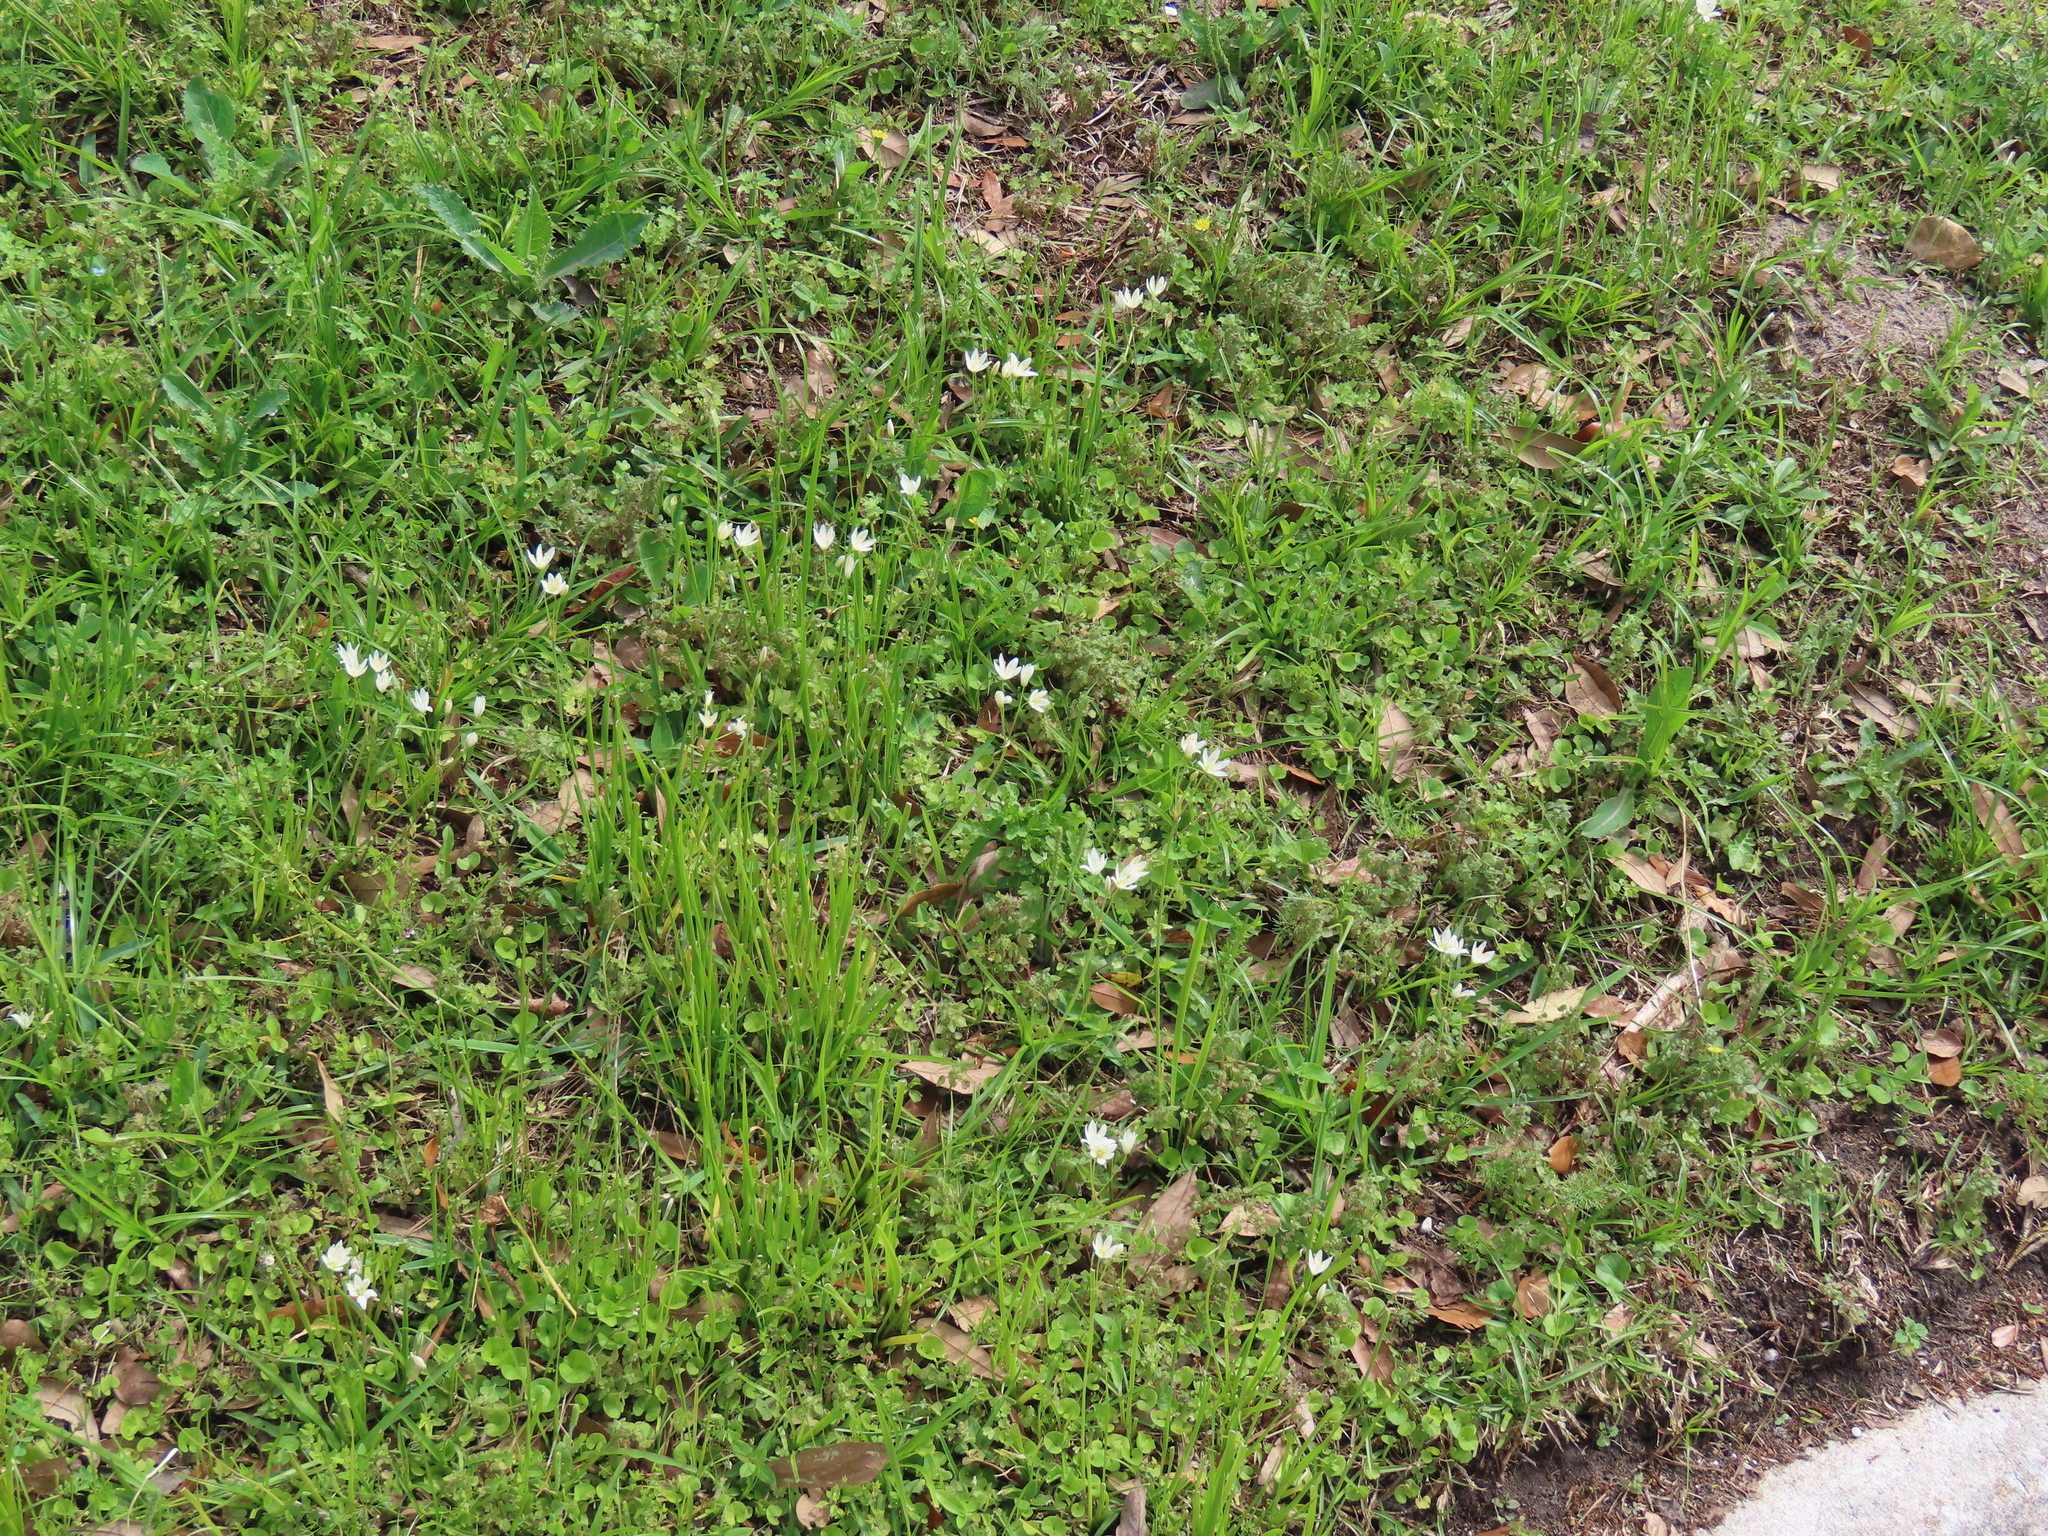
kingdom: Plantae
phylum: Tracheophyta
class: Liliopsida
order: Asparagales
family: Amaryllidaceae
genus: Nothoscordum
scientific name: Nothoscordum bivalve
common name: Crow-poison
